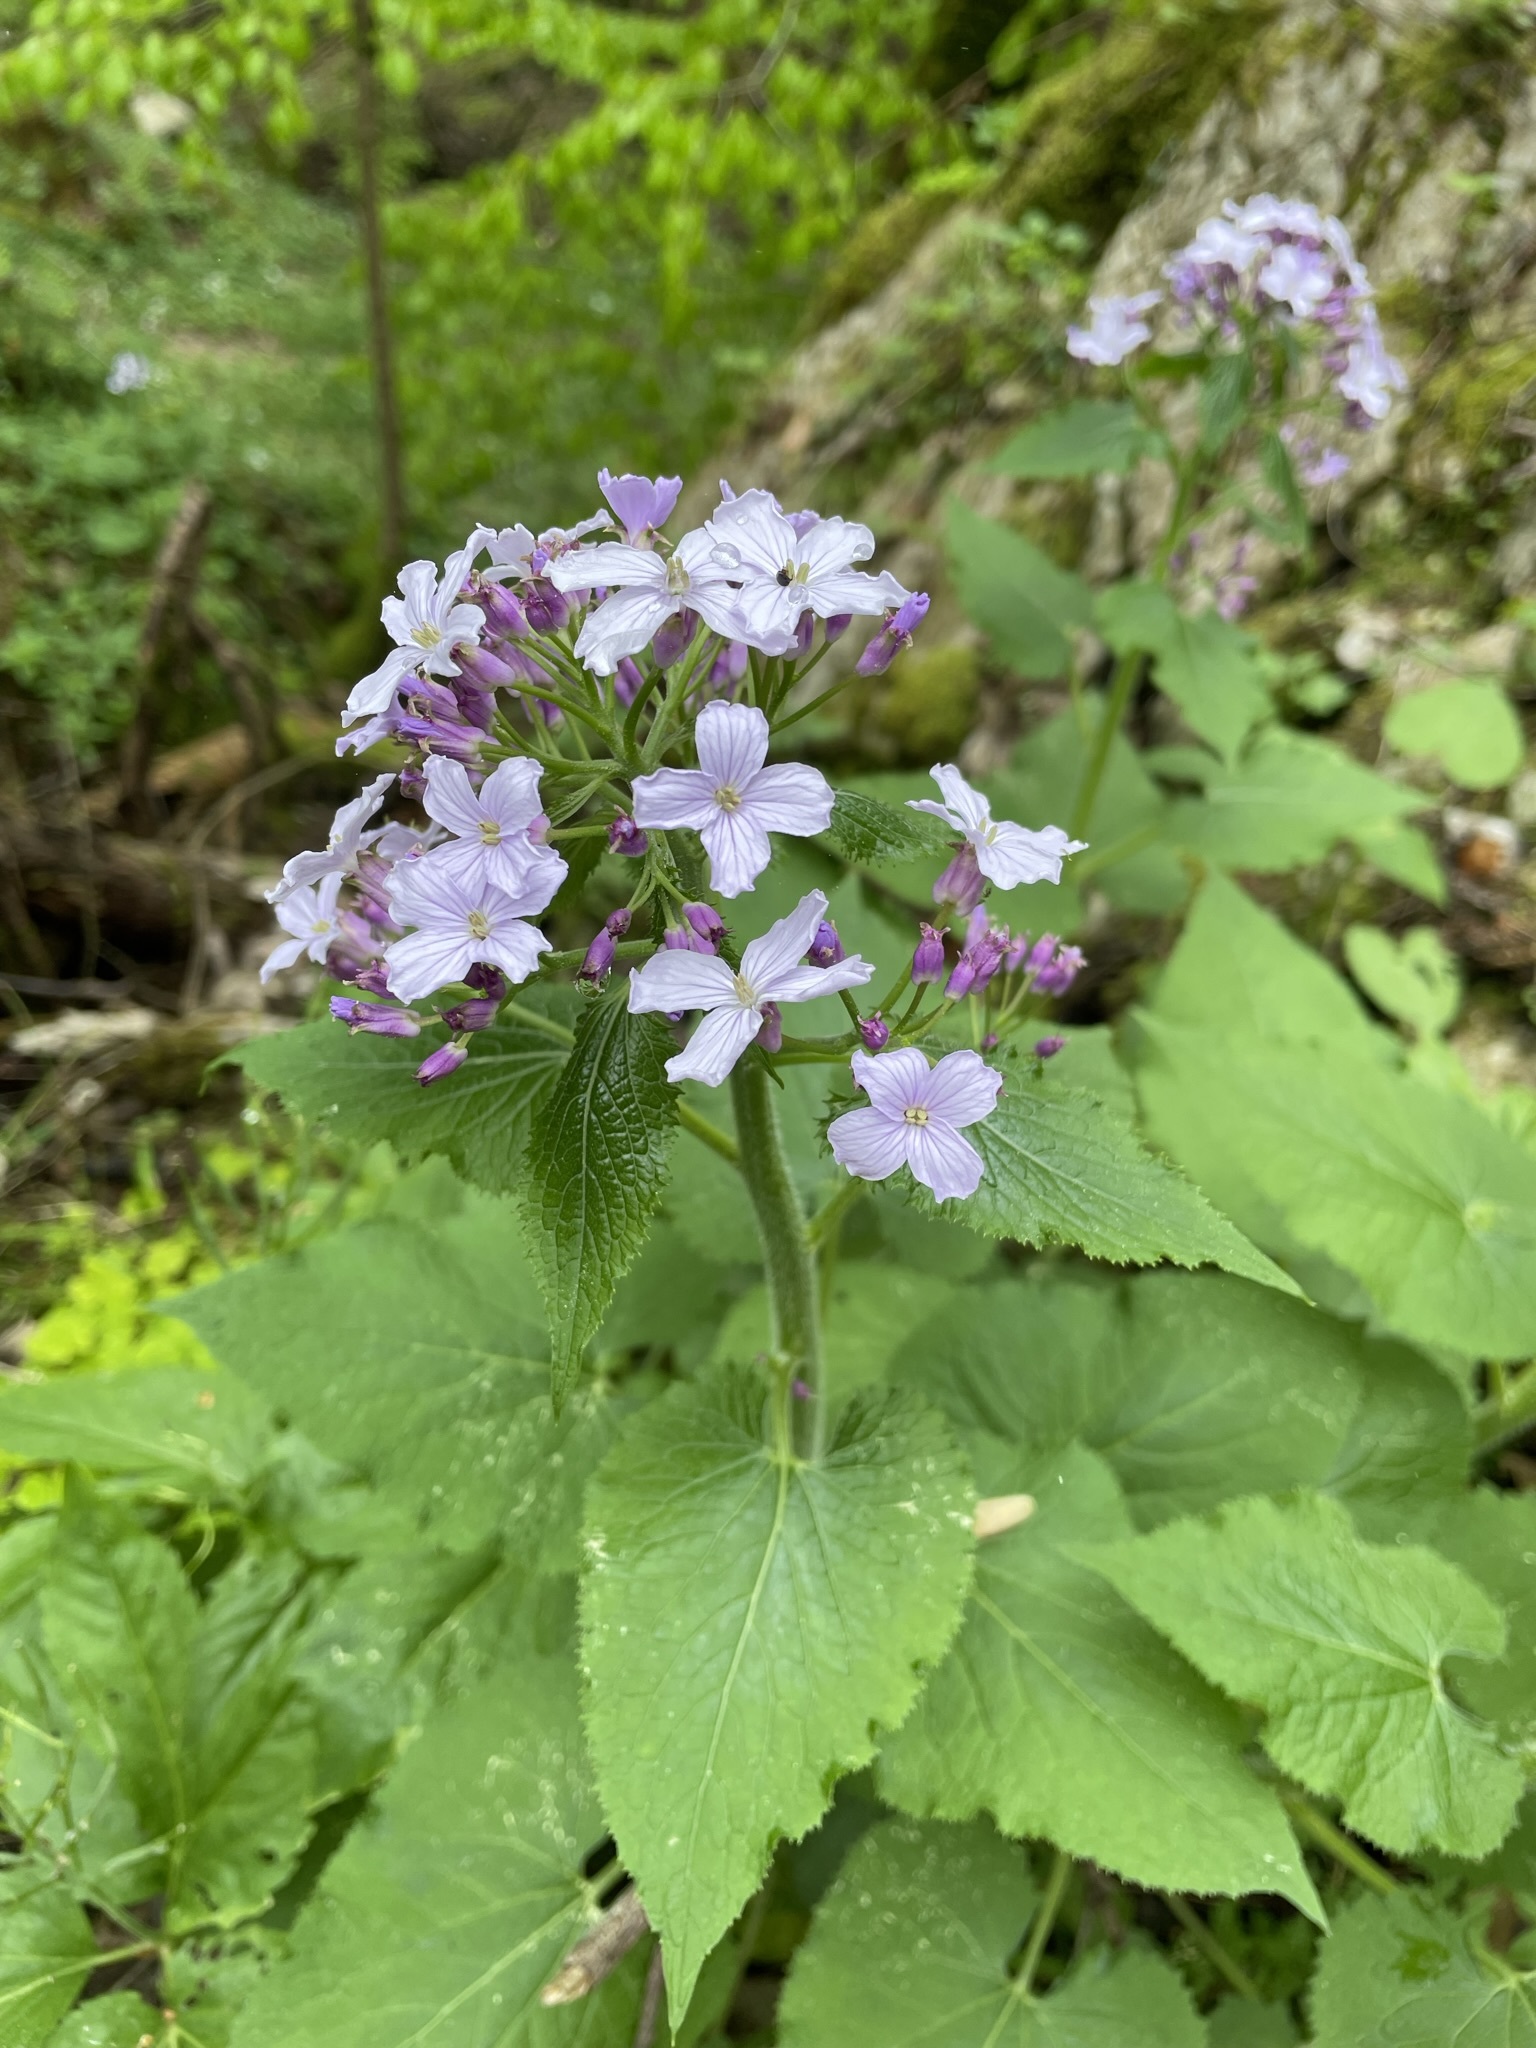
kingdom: Plantae
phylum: Tracheophyta
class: Magnoliopsida
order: Brassicales
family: Brassicaceae
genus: Lunaria
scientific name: Lunaria rediviva
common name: Perennial honesty
